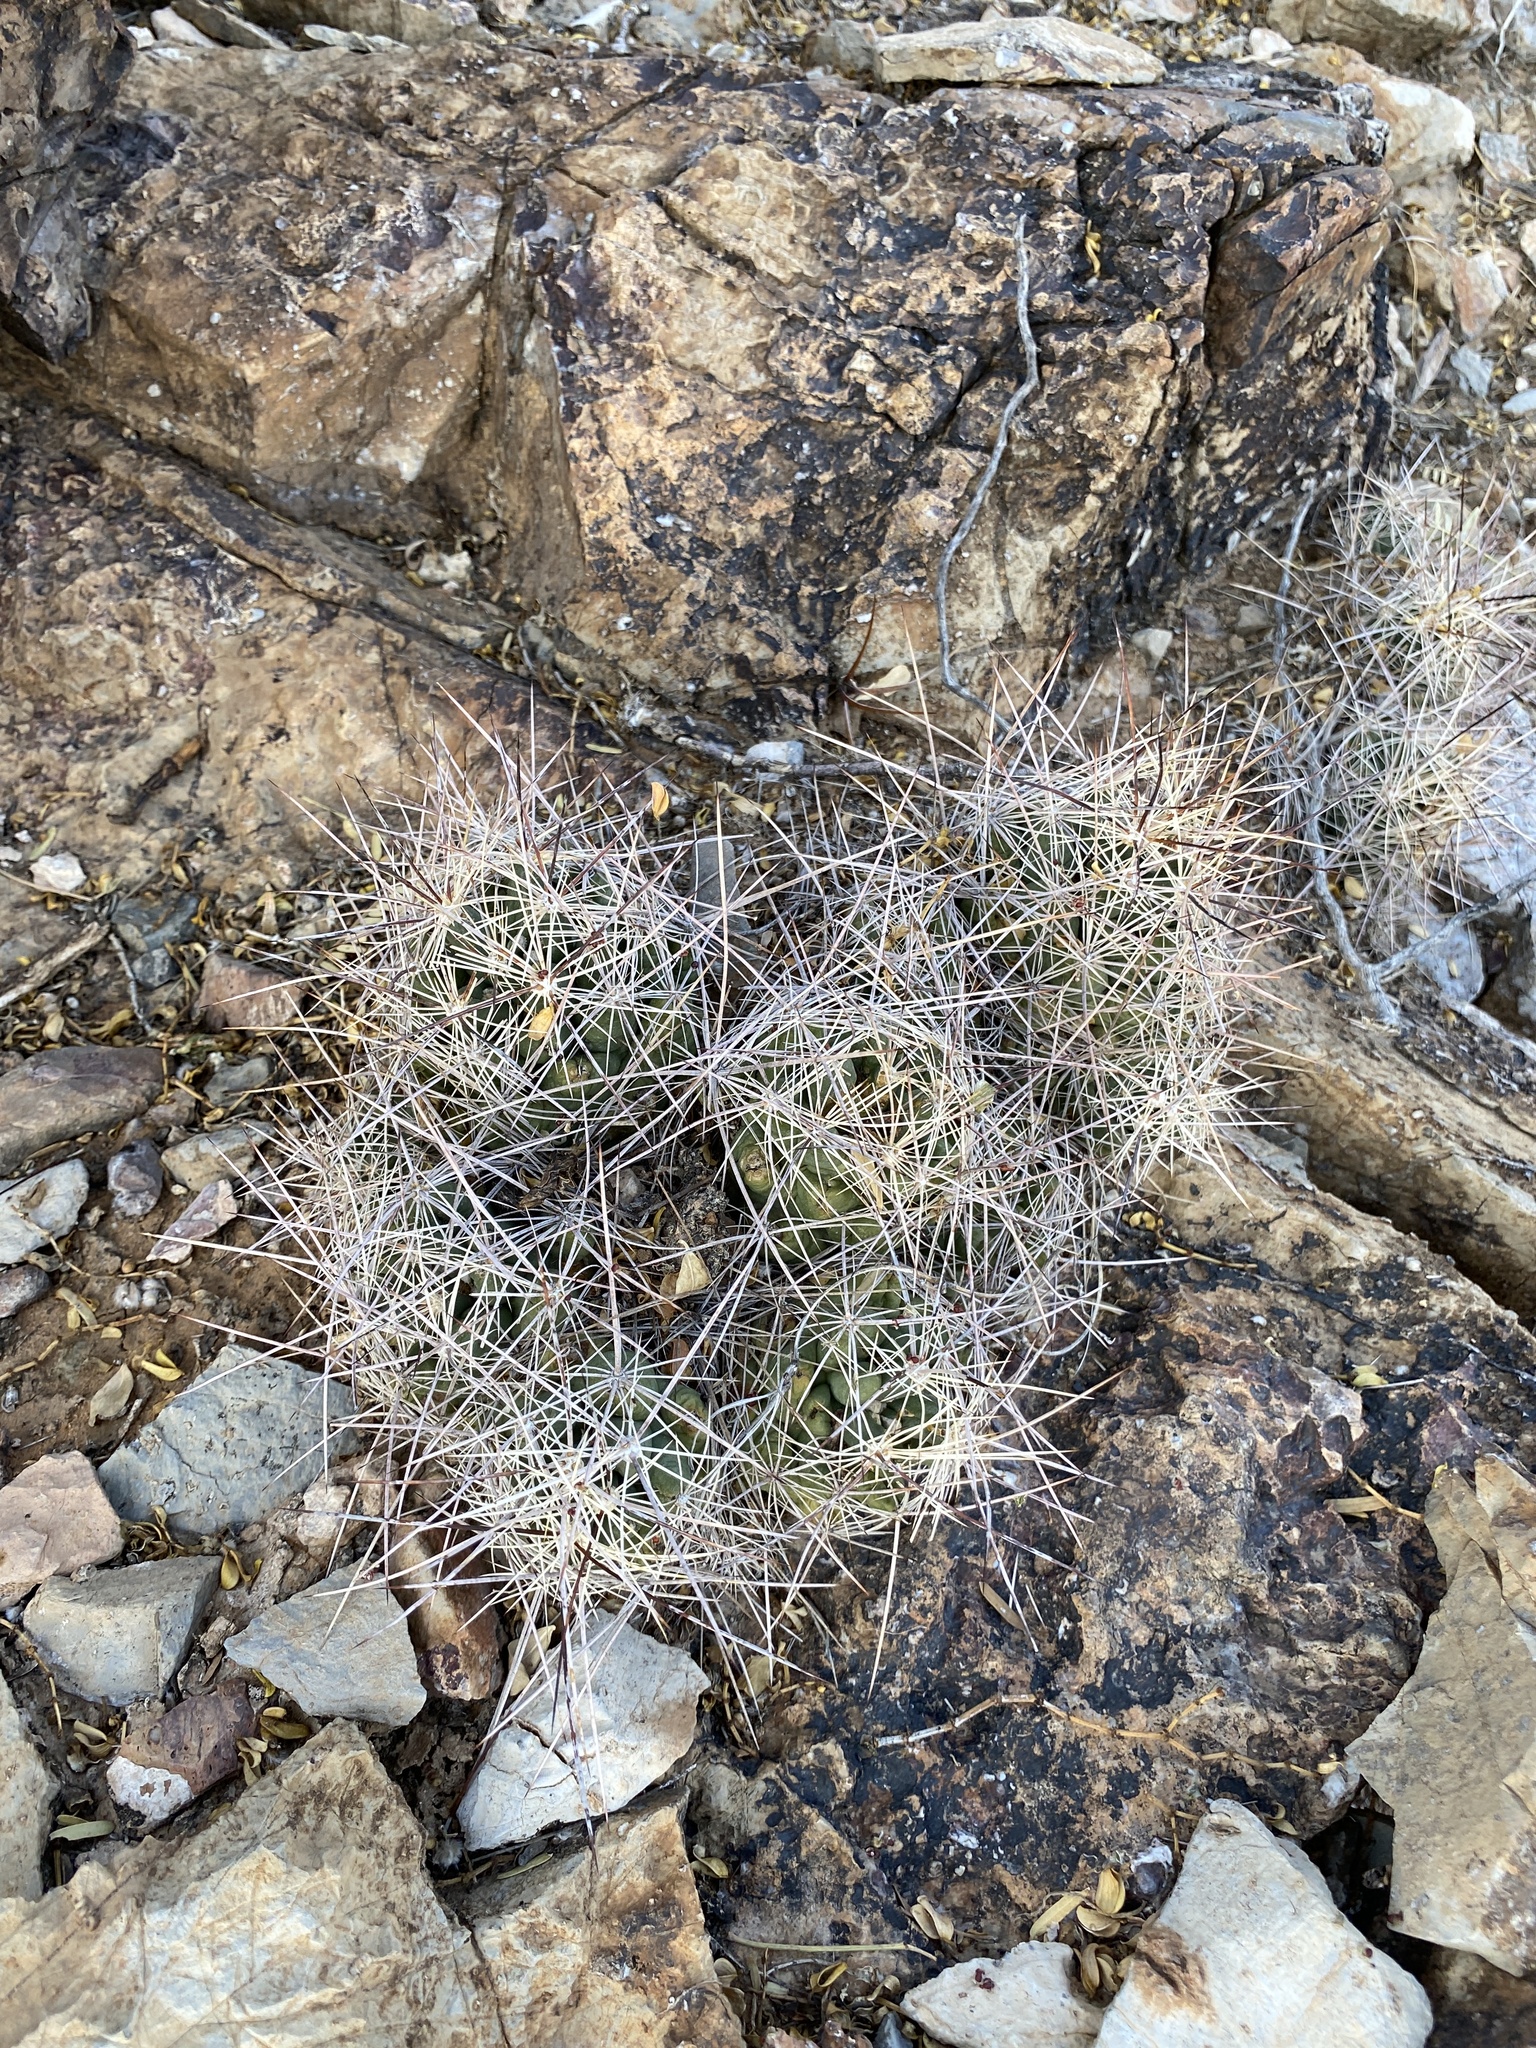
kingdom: Plantae
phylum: Tracheophyta
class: Magnoliopsida
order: Caryophyllales
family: Cactaceae
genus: Coryphantha
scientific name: Coryphantha macromeris
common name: Nipple beehive cactus
